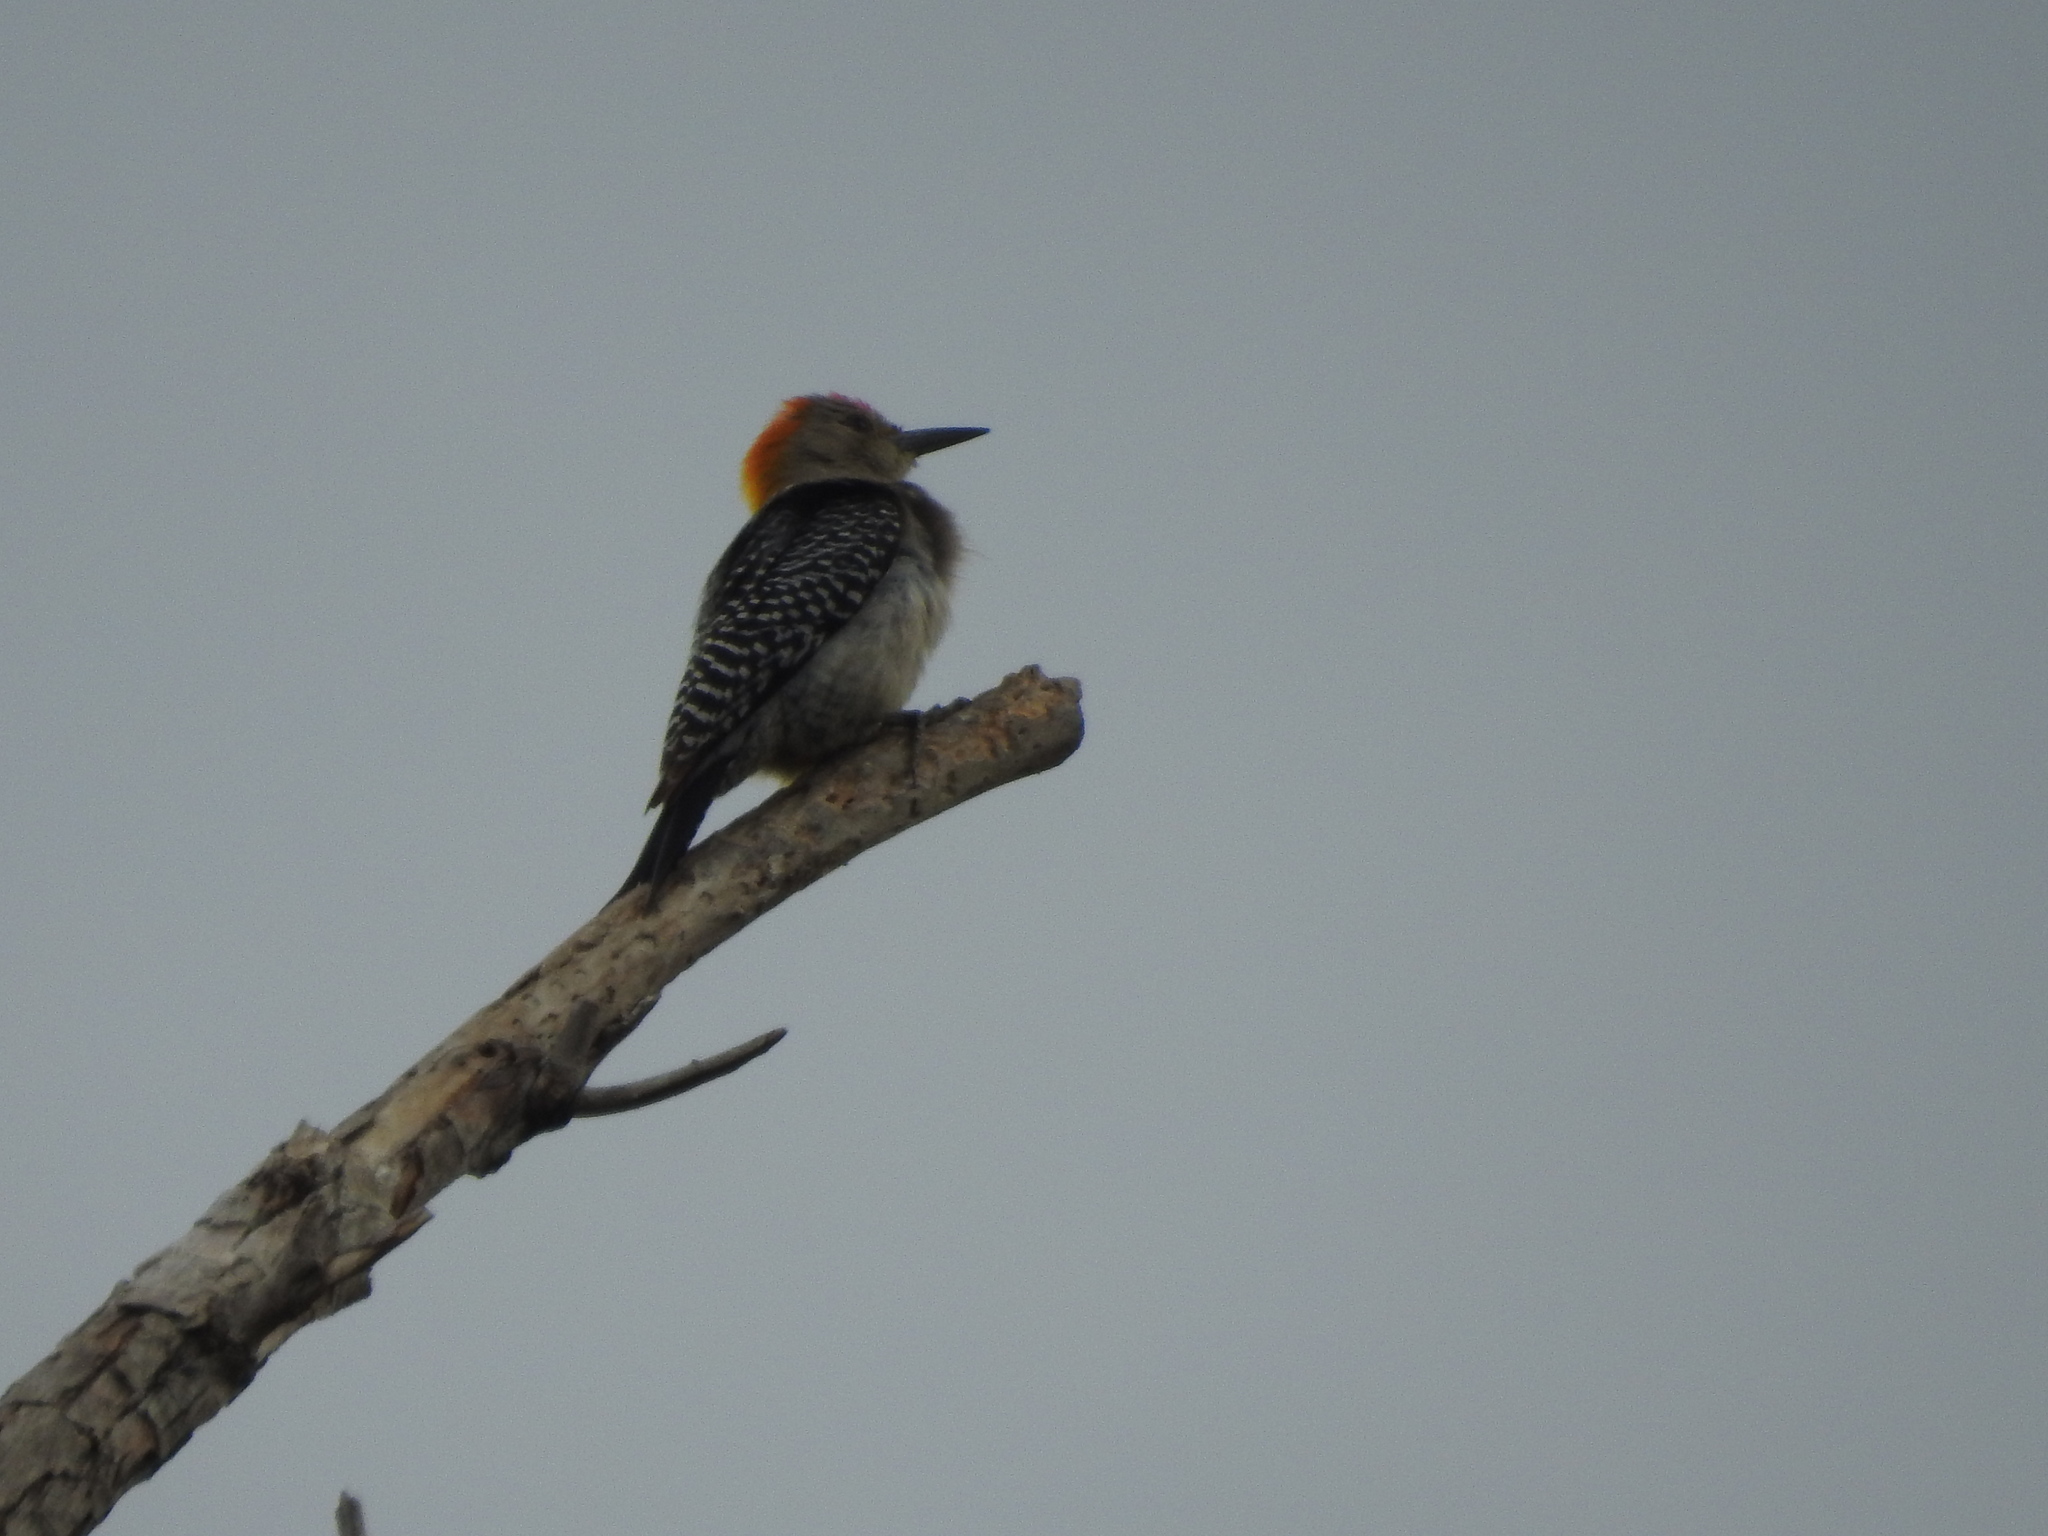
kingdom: Animalia
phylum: Chordata
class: Aves
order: Piciformes
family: Picidae
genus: Melanerpes
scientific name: Melanerpes aurifrons
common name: Golden-fronted woodpecker
